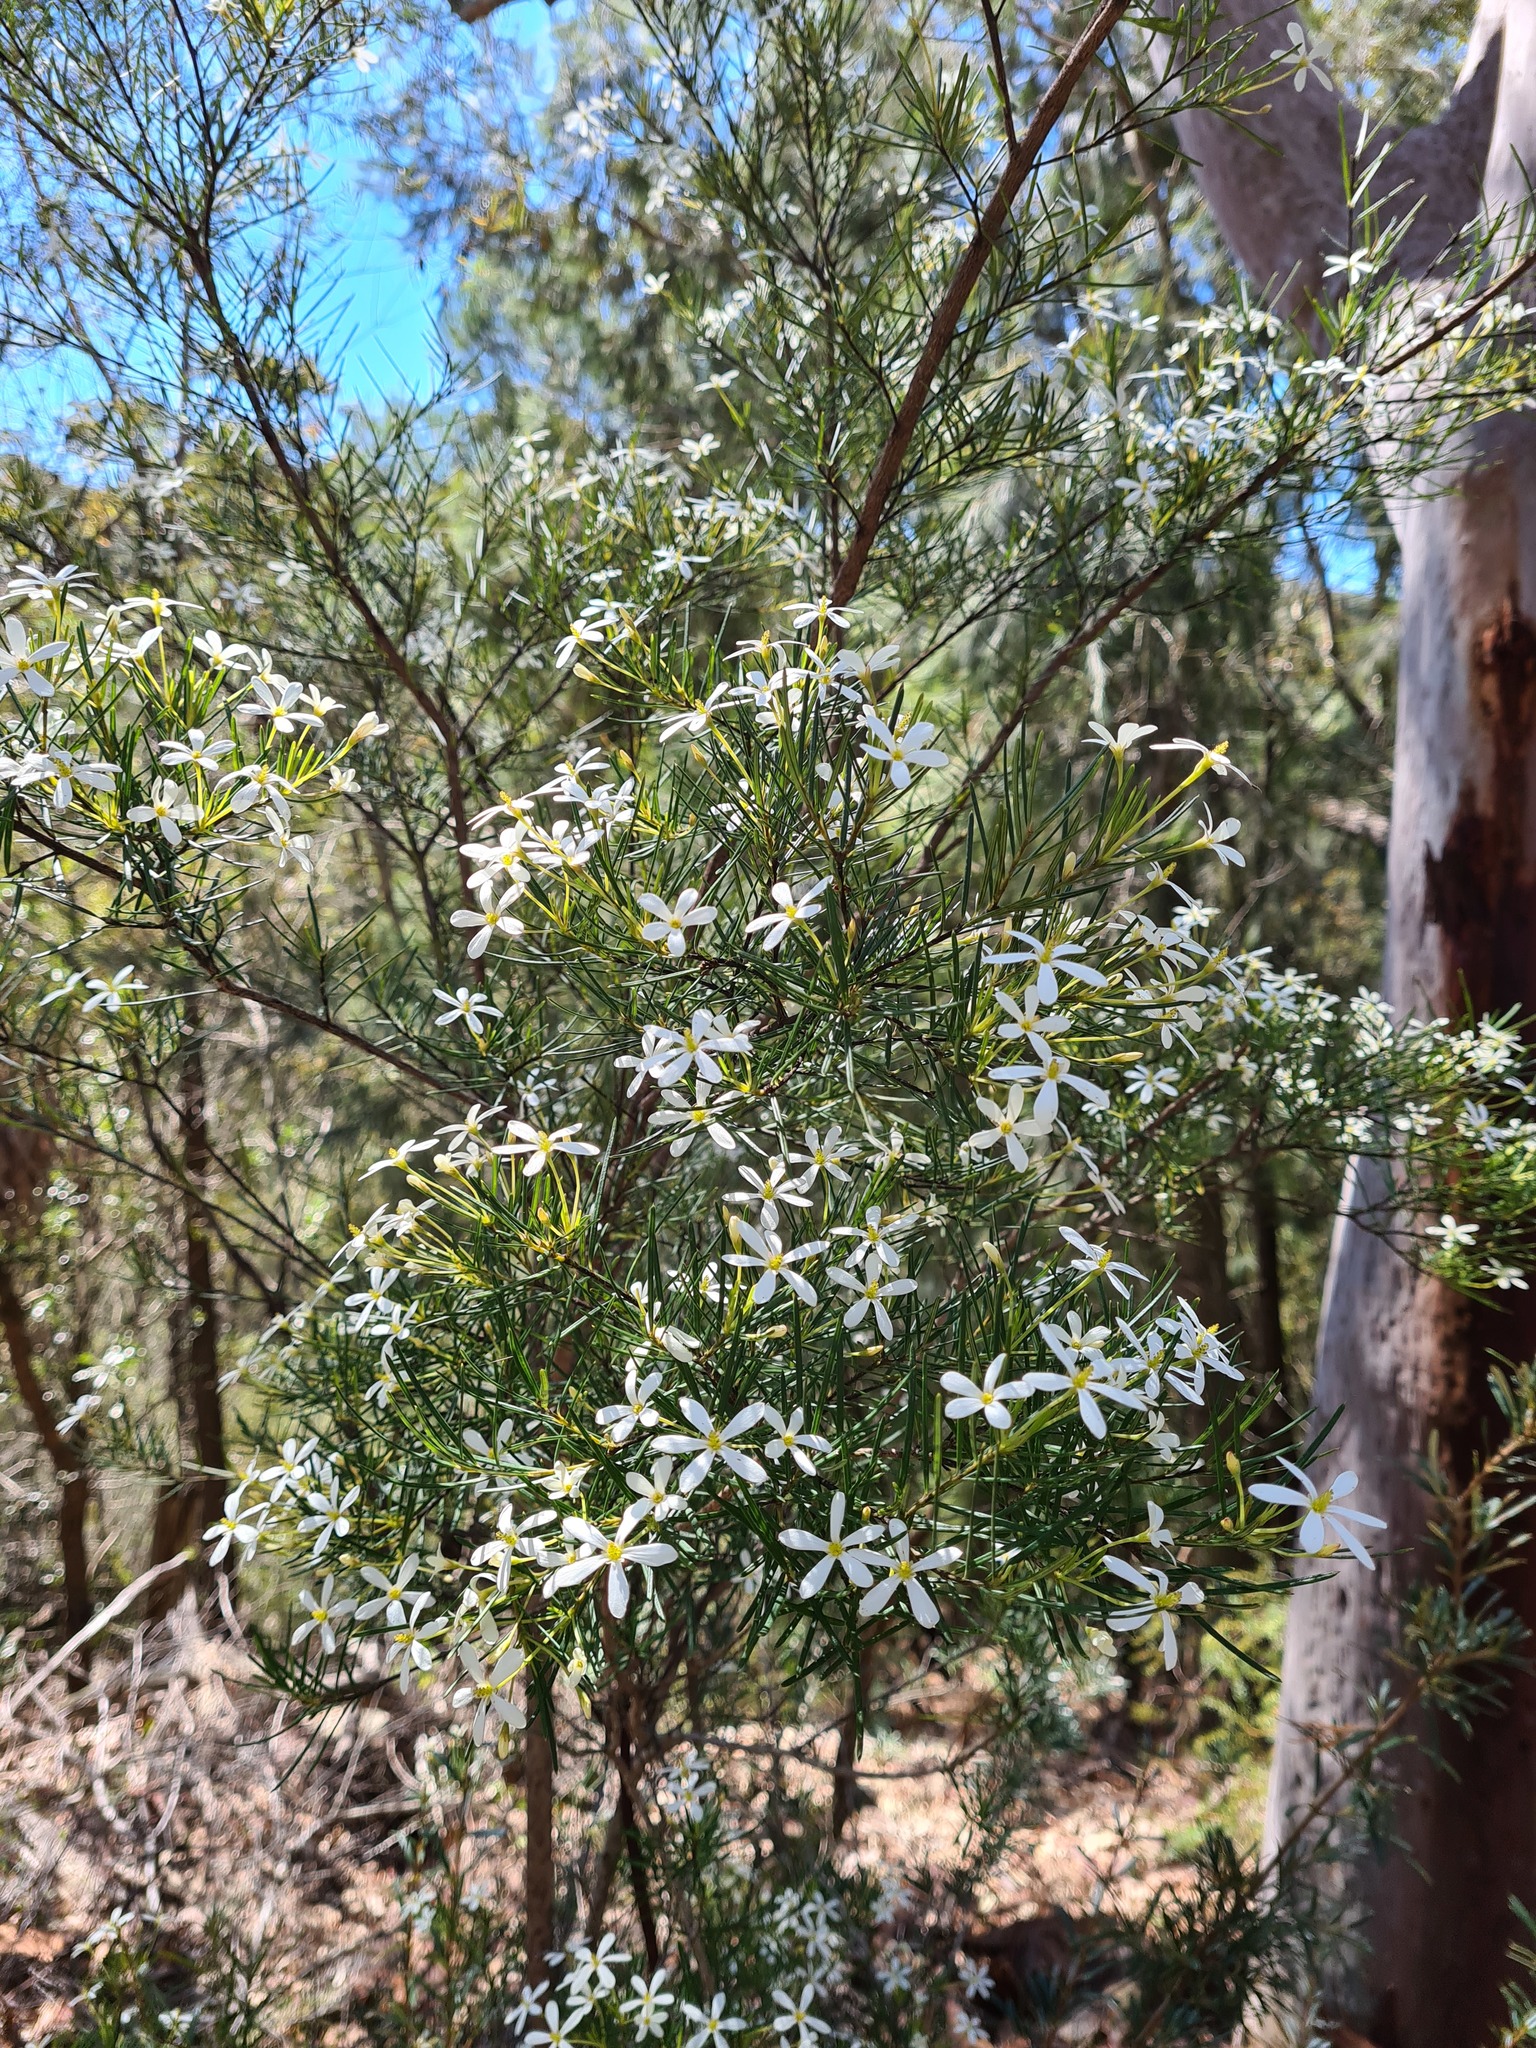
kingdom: Plantae
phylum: Tracheophyta
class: Magnoliopsida
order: Malpighiales
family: Euphorbiaceae
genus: Ricinocarpos
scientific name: Ricinocarpos pinifolius
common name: Weddingbush
